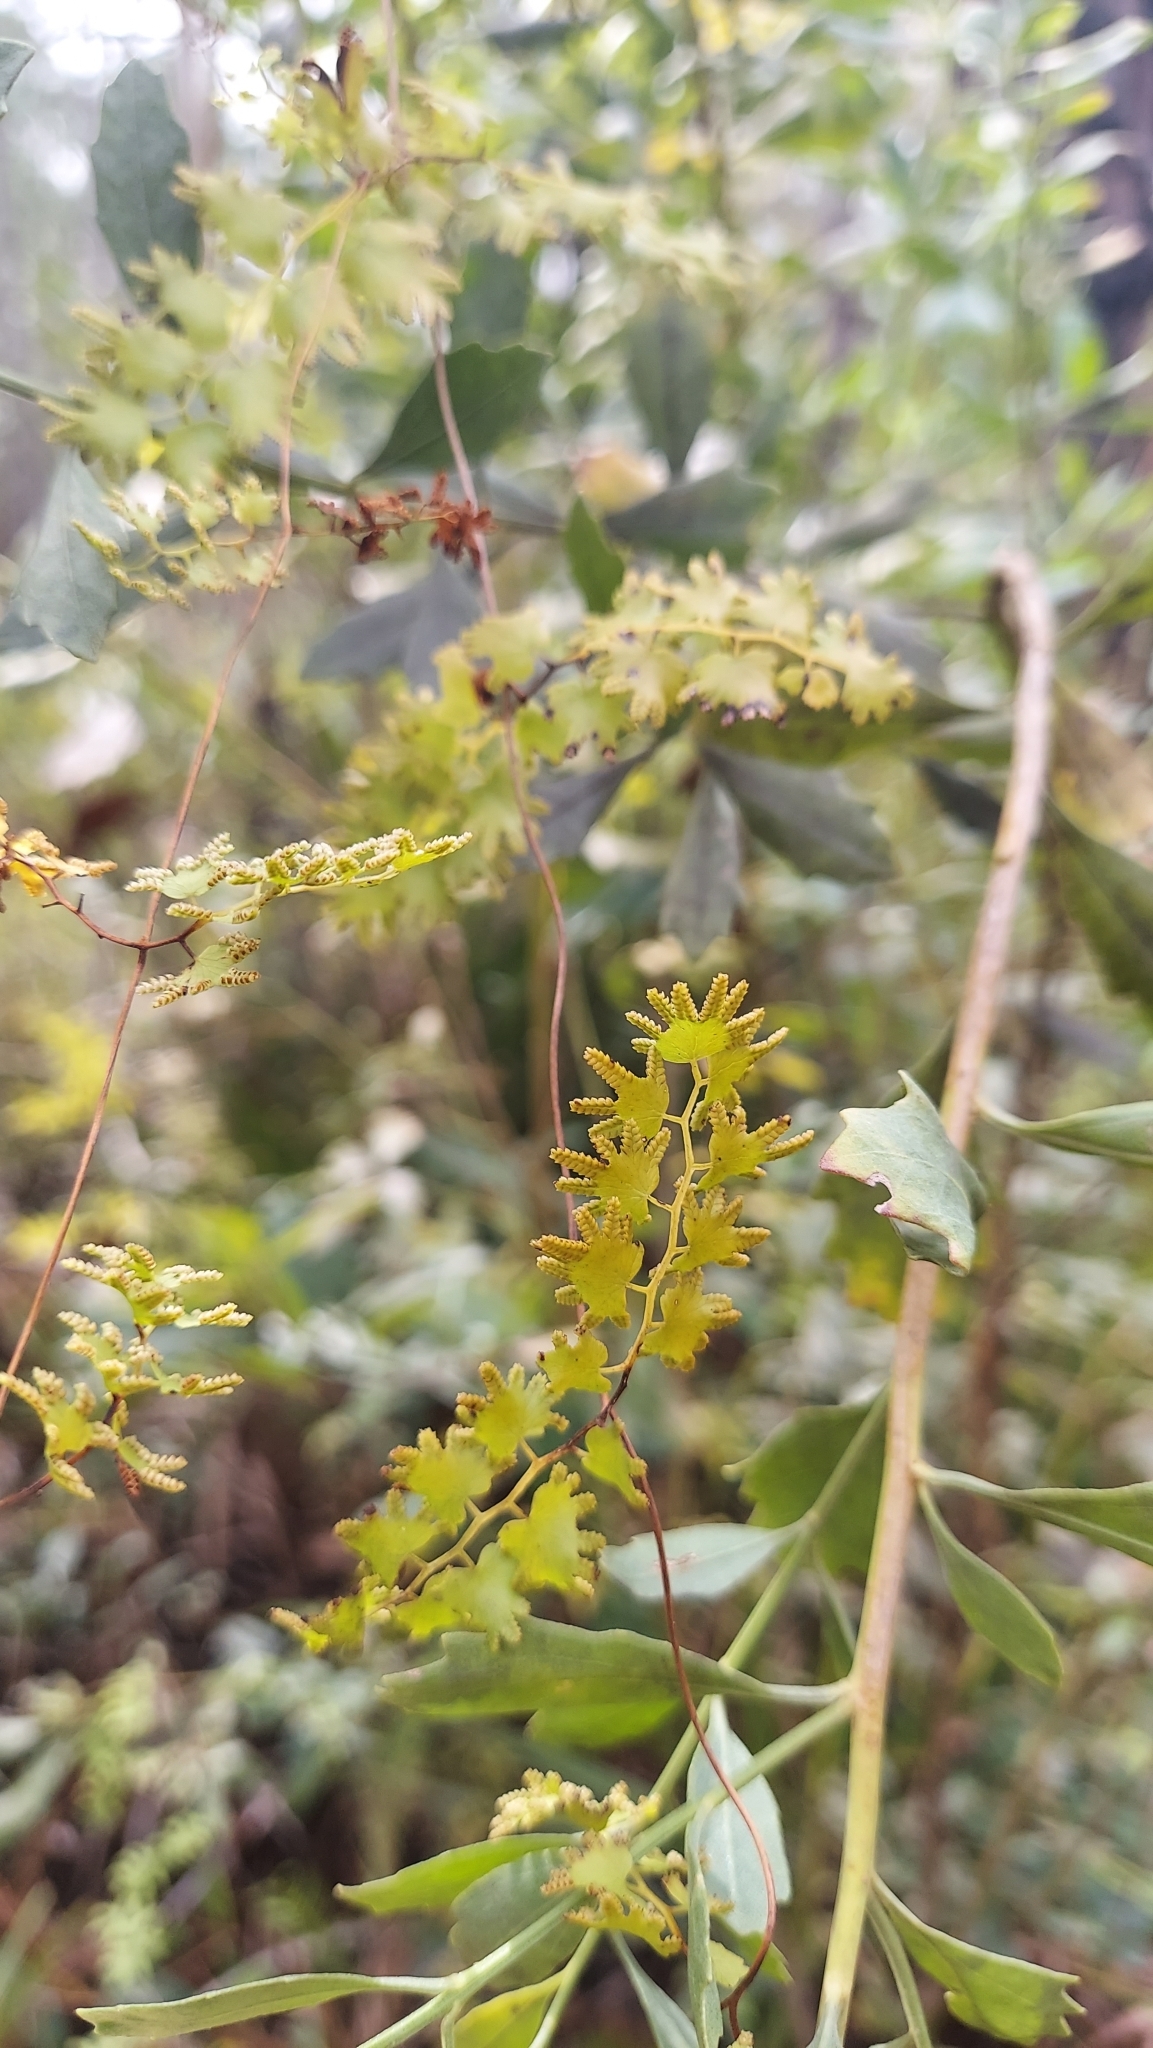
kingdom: Plantae
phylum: Tracheophyta
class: Polypodiopsida
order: Schizaeales
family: Lygodiaceae
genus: Lygodium
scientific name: Lygodium microphyllum
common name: Small-leaf climbing fern
